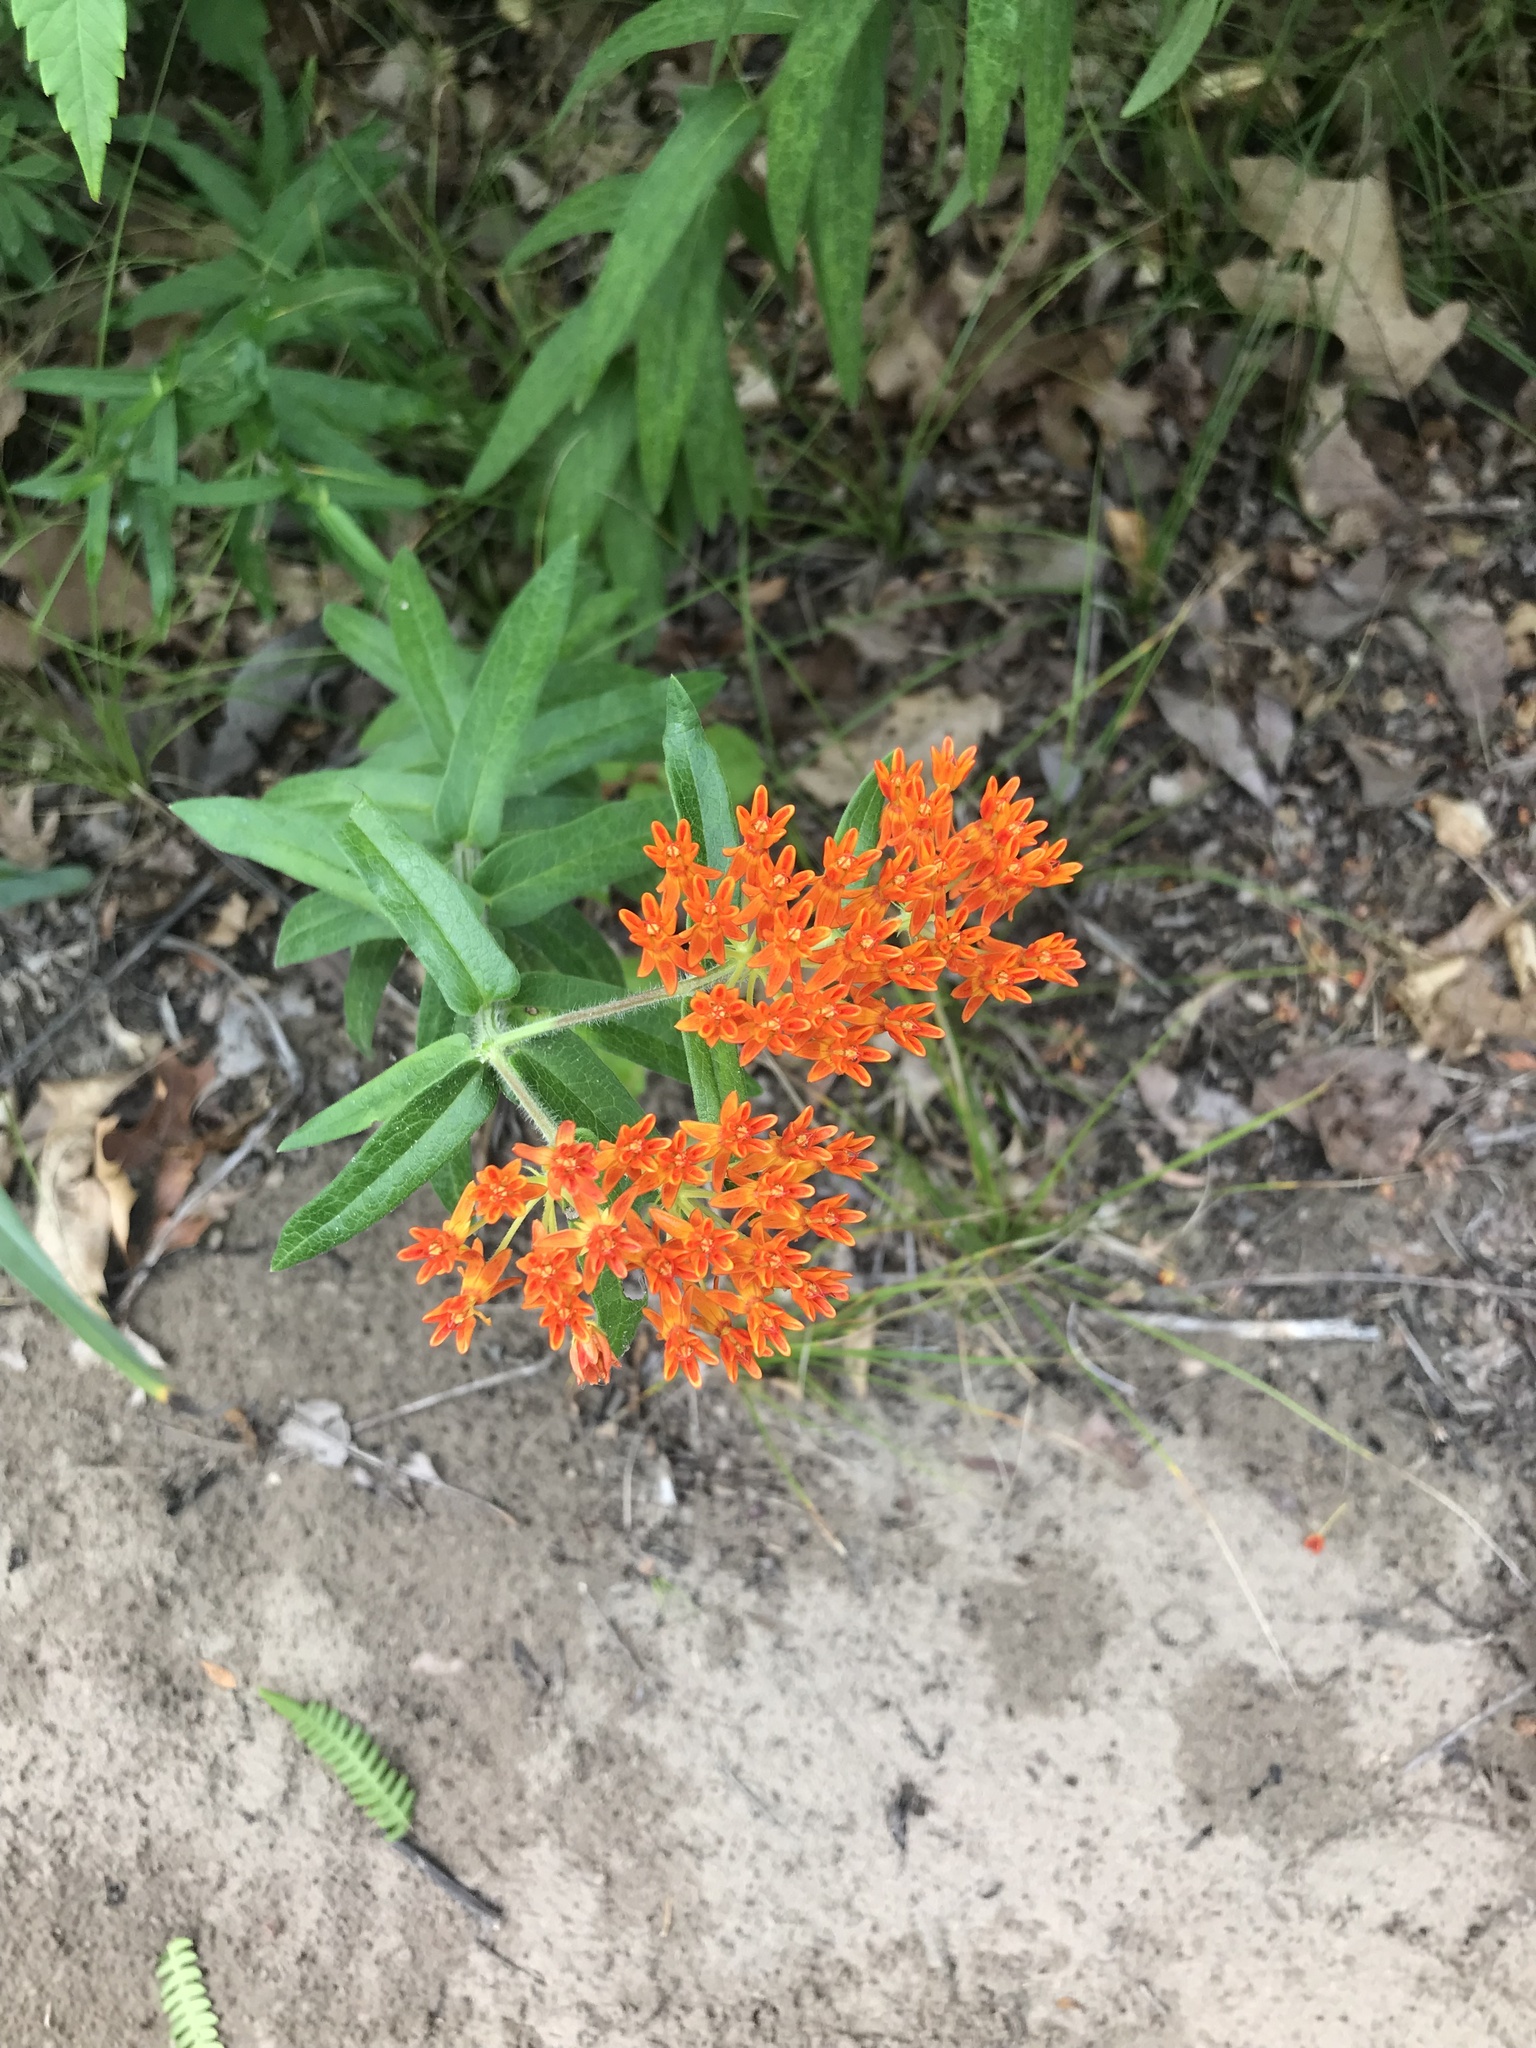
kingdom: Plantae
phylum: Tracheophyta
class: Magnoliopsida
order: Gentianales
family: Apocynaceae
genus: Asclepias
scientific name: Asclepias tuberosa
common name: Butterfly milkweed
